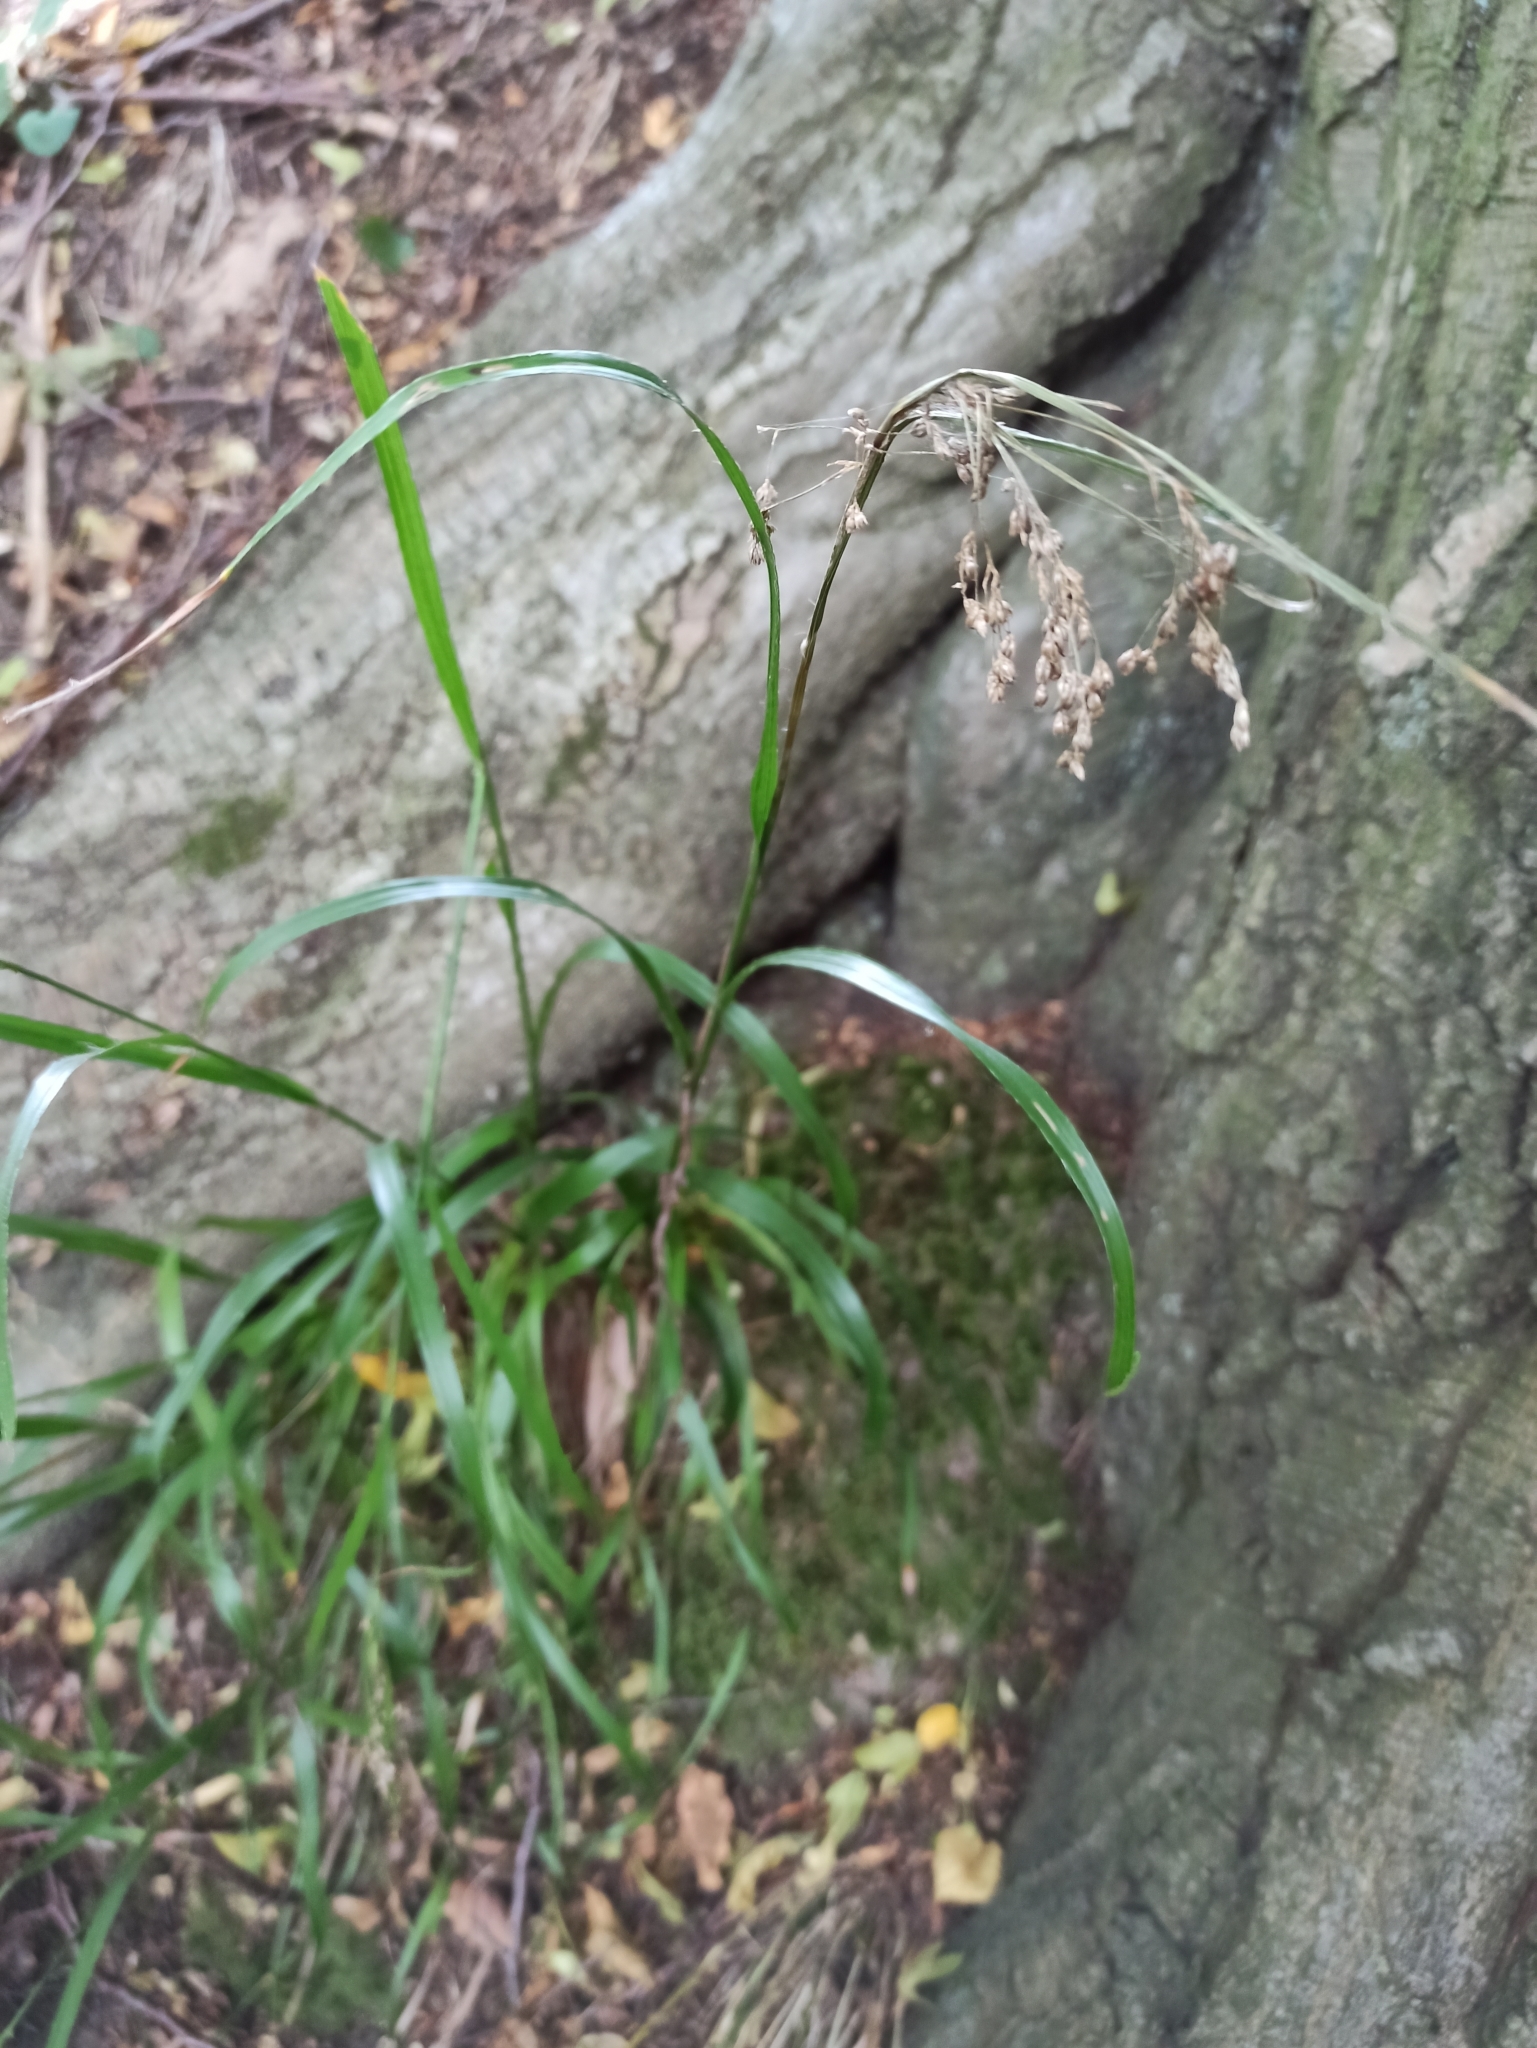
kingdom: Plantae
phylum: Tracheophyta
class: Liliopsida
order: Poales
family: Juncaceae
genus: Luzula
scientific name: Luzula luzuloides
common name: White wood-rush
